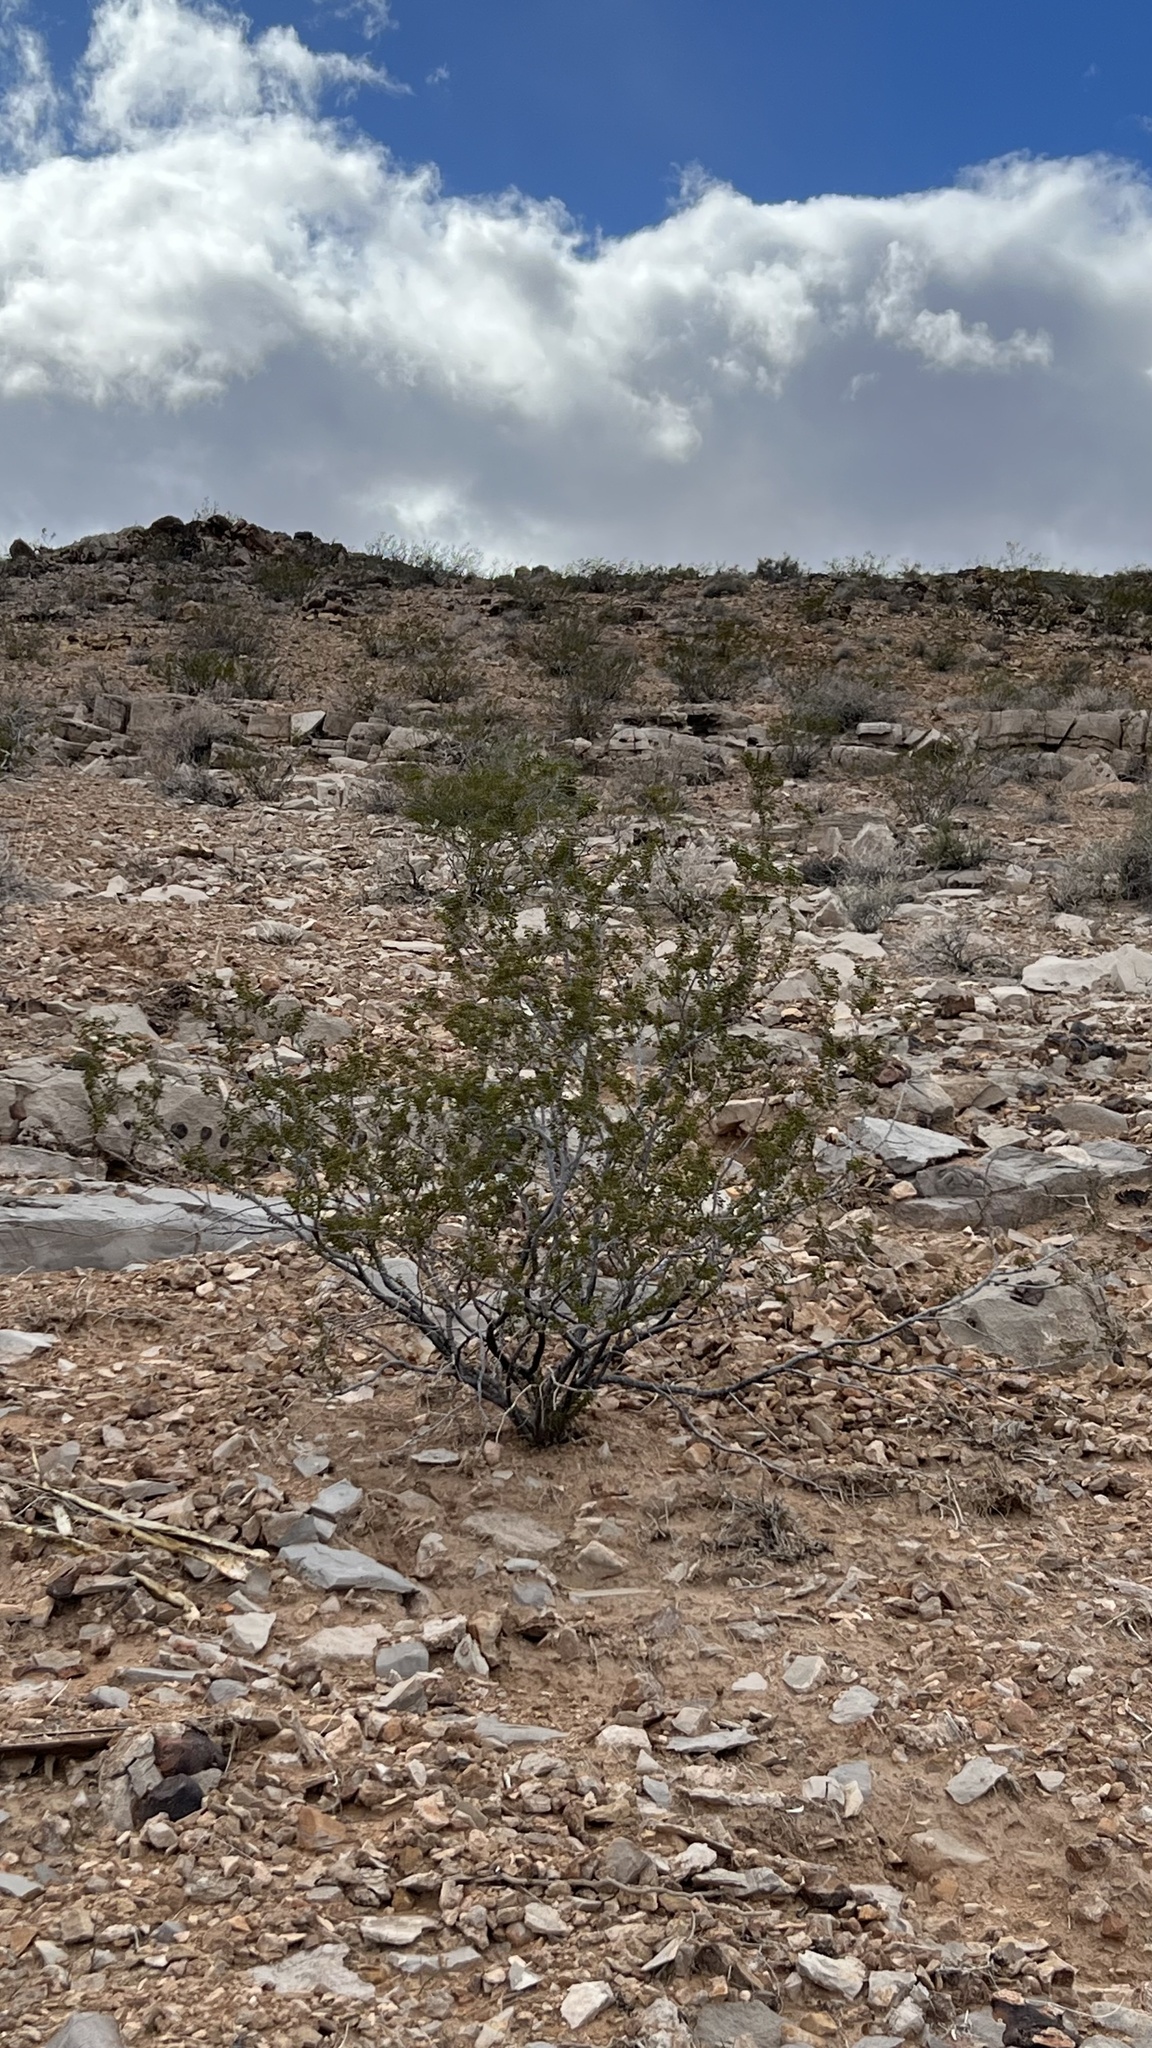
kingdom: Plantae
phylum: Tracheophyta
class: Magnoliopsida
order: Zygophyllales
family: Zygophyllaceae
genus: Larrea
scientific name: Larrea tridentata
